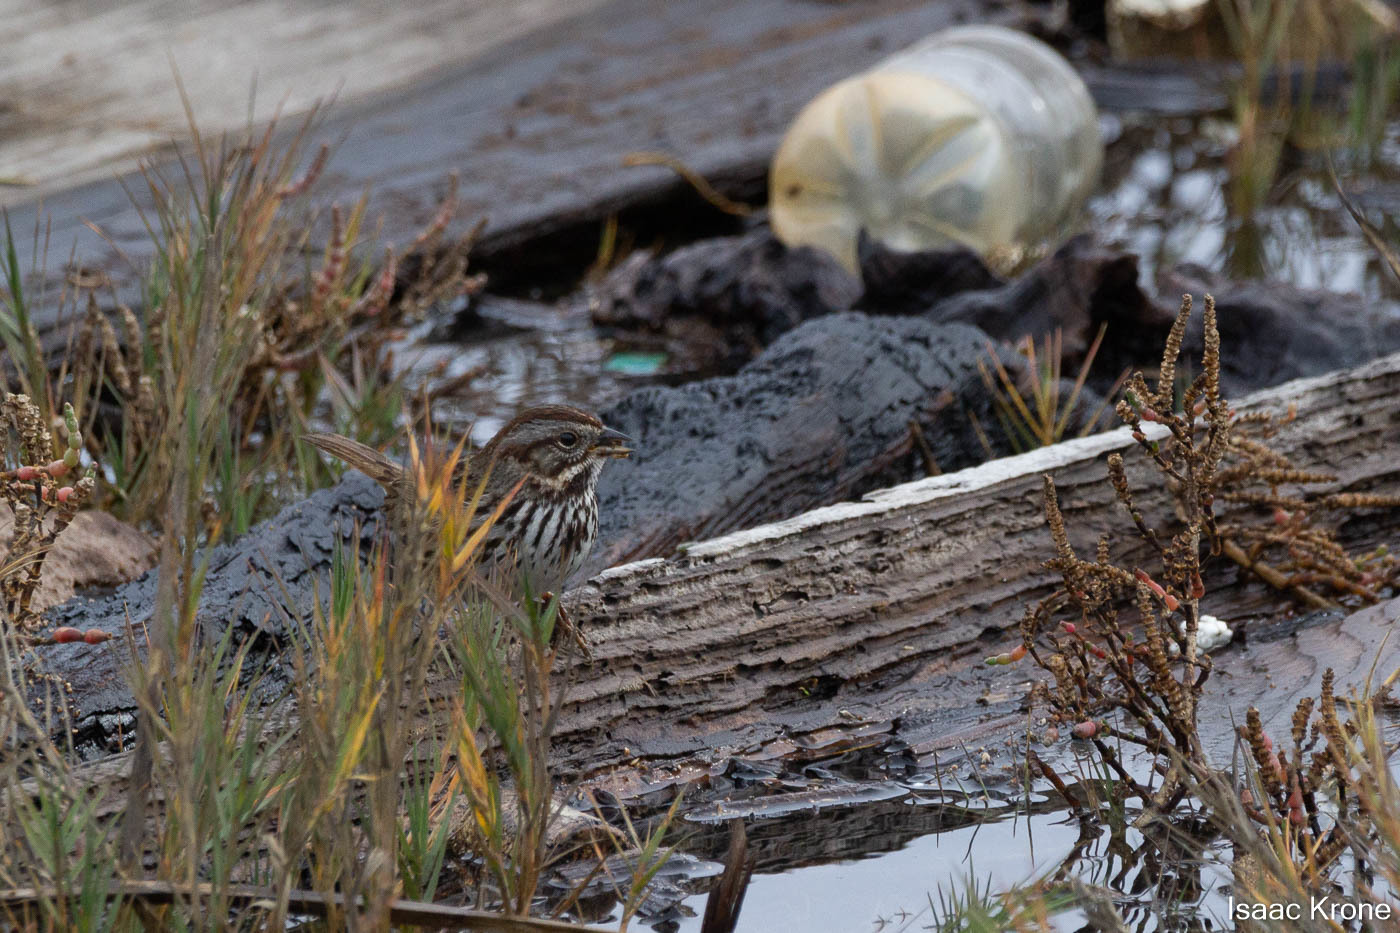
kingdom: Animalia
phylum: Chordata
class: Aves
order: Passeriformes
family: Passerellidae
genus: Melospiza
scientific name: Melospiza melodia
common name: Song sparrow
